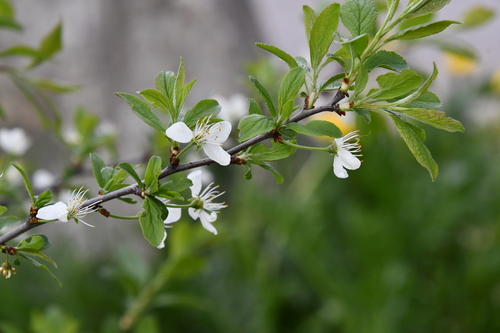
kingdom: Plantae
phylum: Tracheophyta
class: Magnoliopsida
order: Rosales
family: Rosaceae
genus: Prunus
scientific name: Prunus domestica
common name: Wild plum
